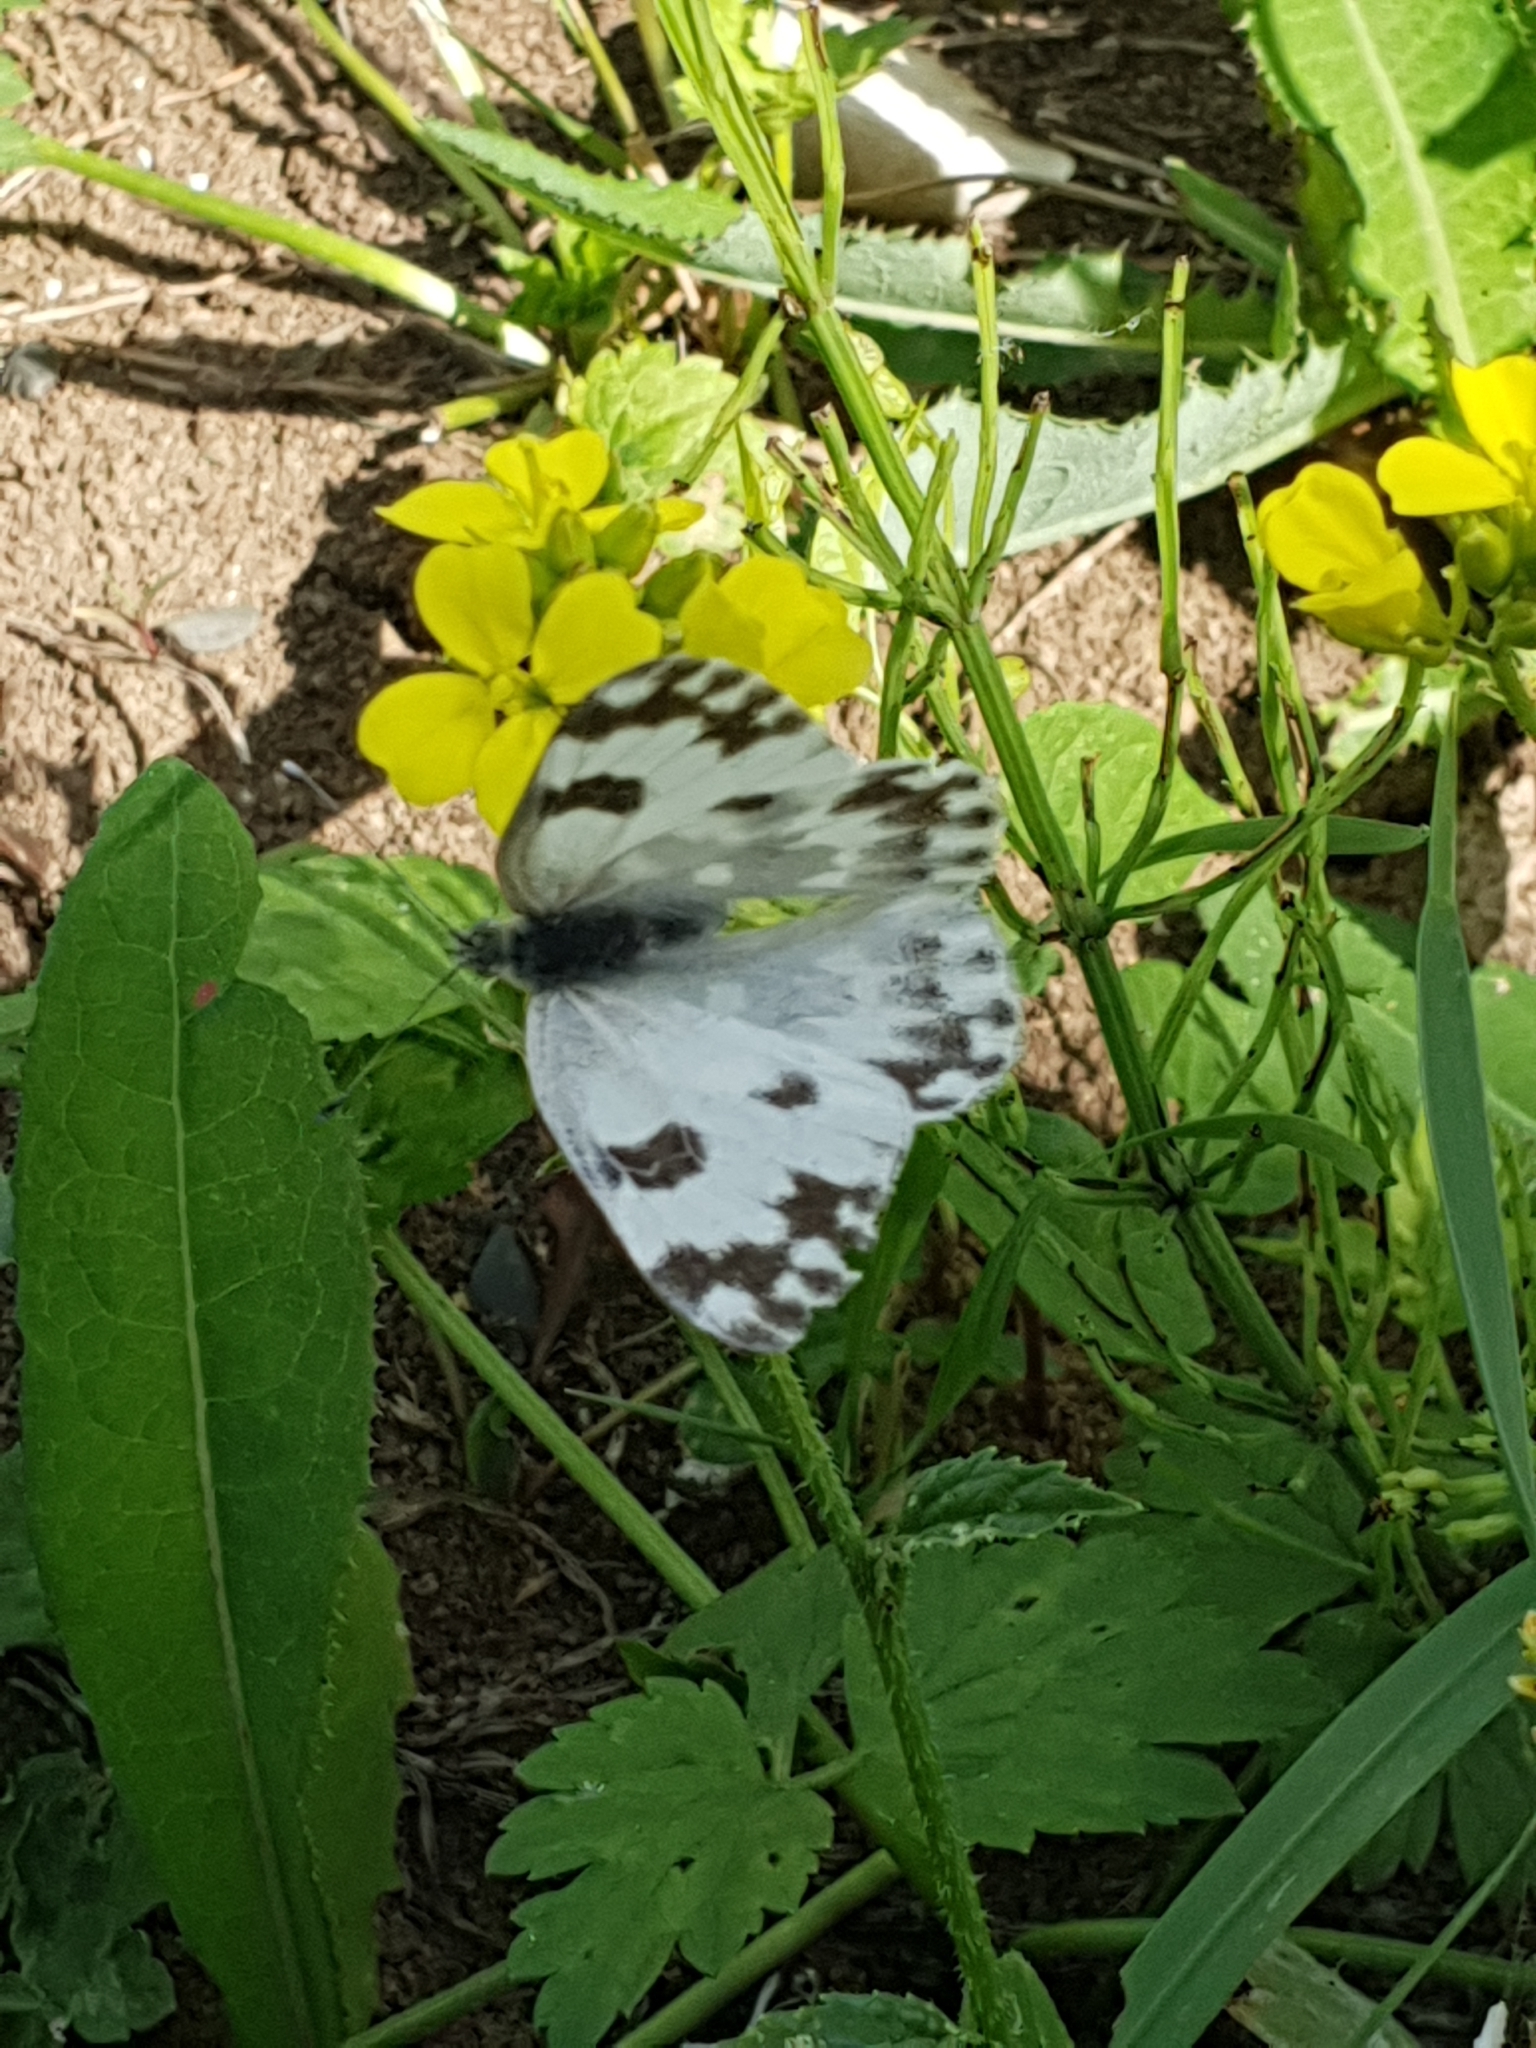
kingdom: Animalia
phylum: Arthropoda
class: Insecta
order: Lepidoptera
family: Pieridae
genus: Pontia
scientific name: Pontia edusa
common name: Eastern bath white
